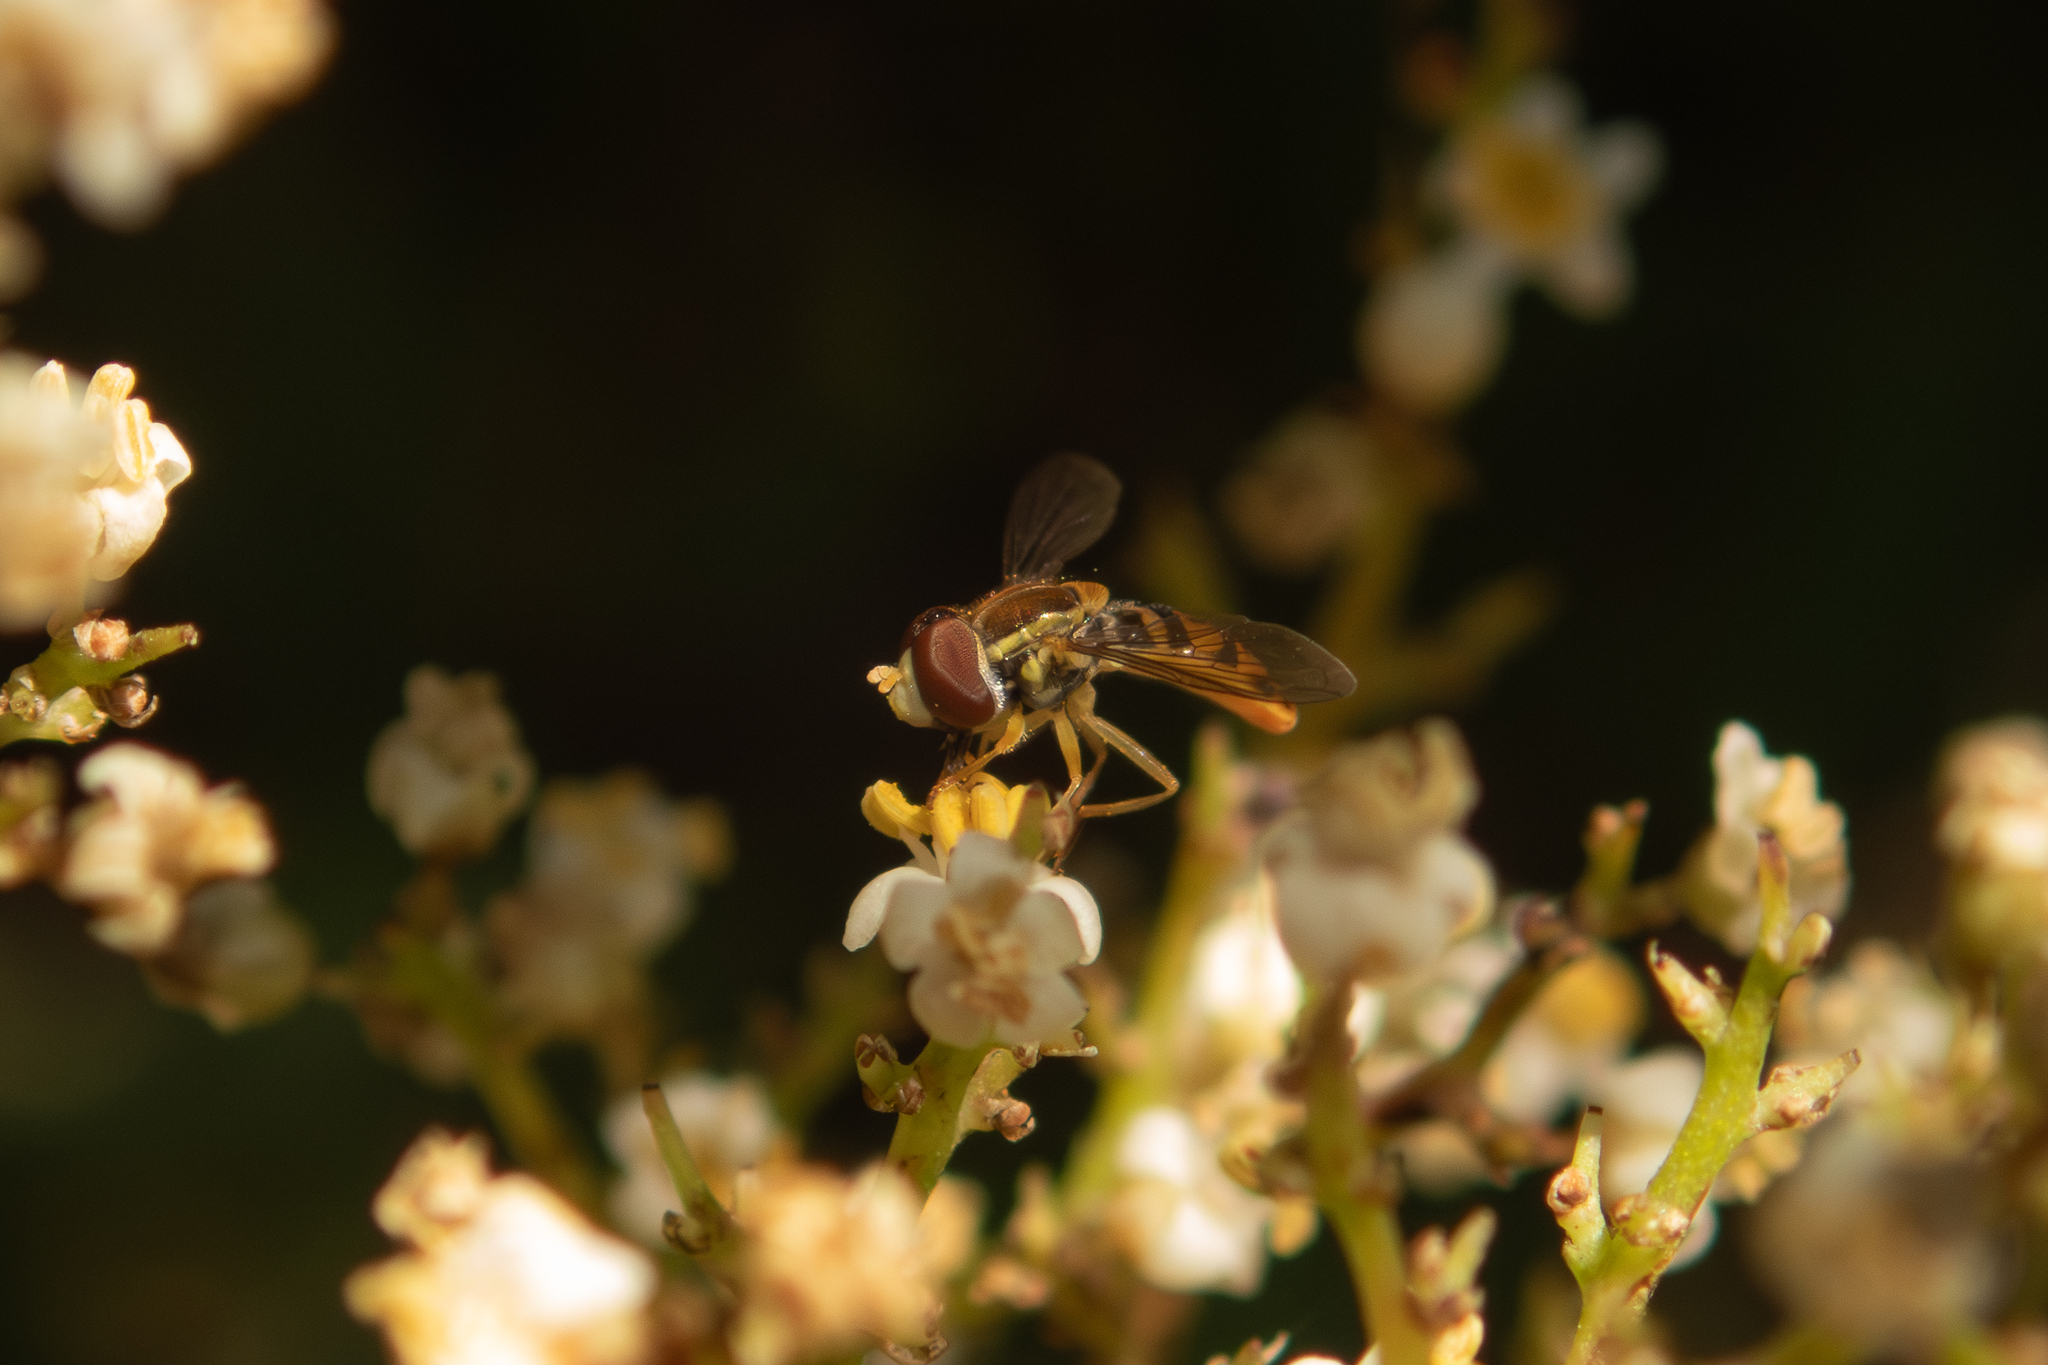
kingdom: Animalia
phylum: Arthropoda
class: Insecta
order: Diptera
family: Syrphidae
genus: Toxomerus
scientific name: Toxomerus marginatus
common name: Syrphid fly
